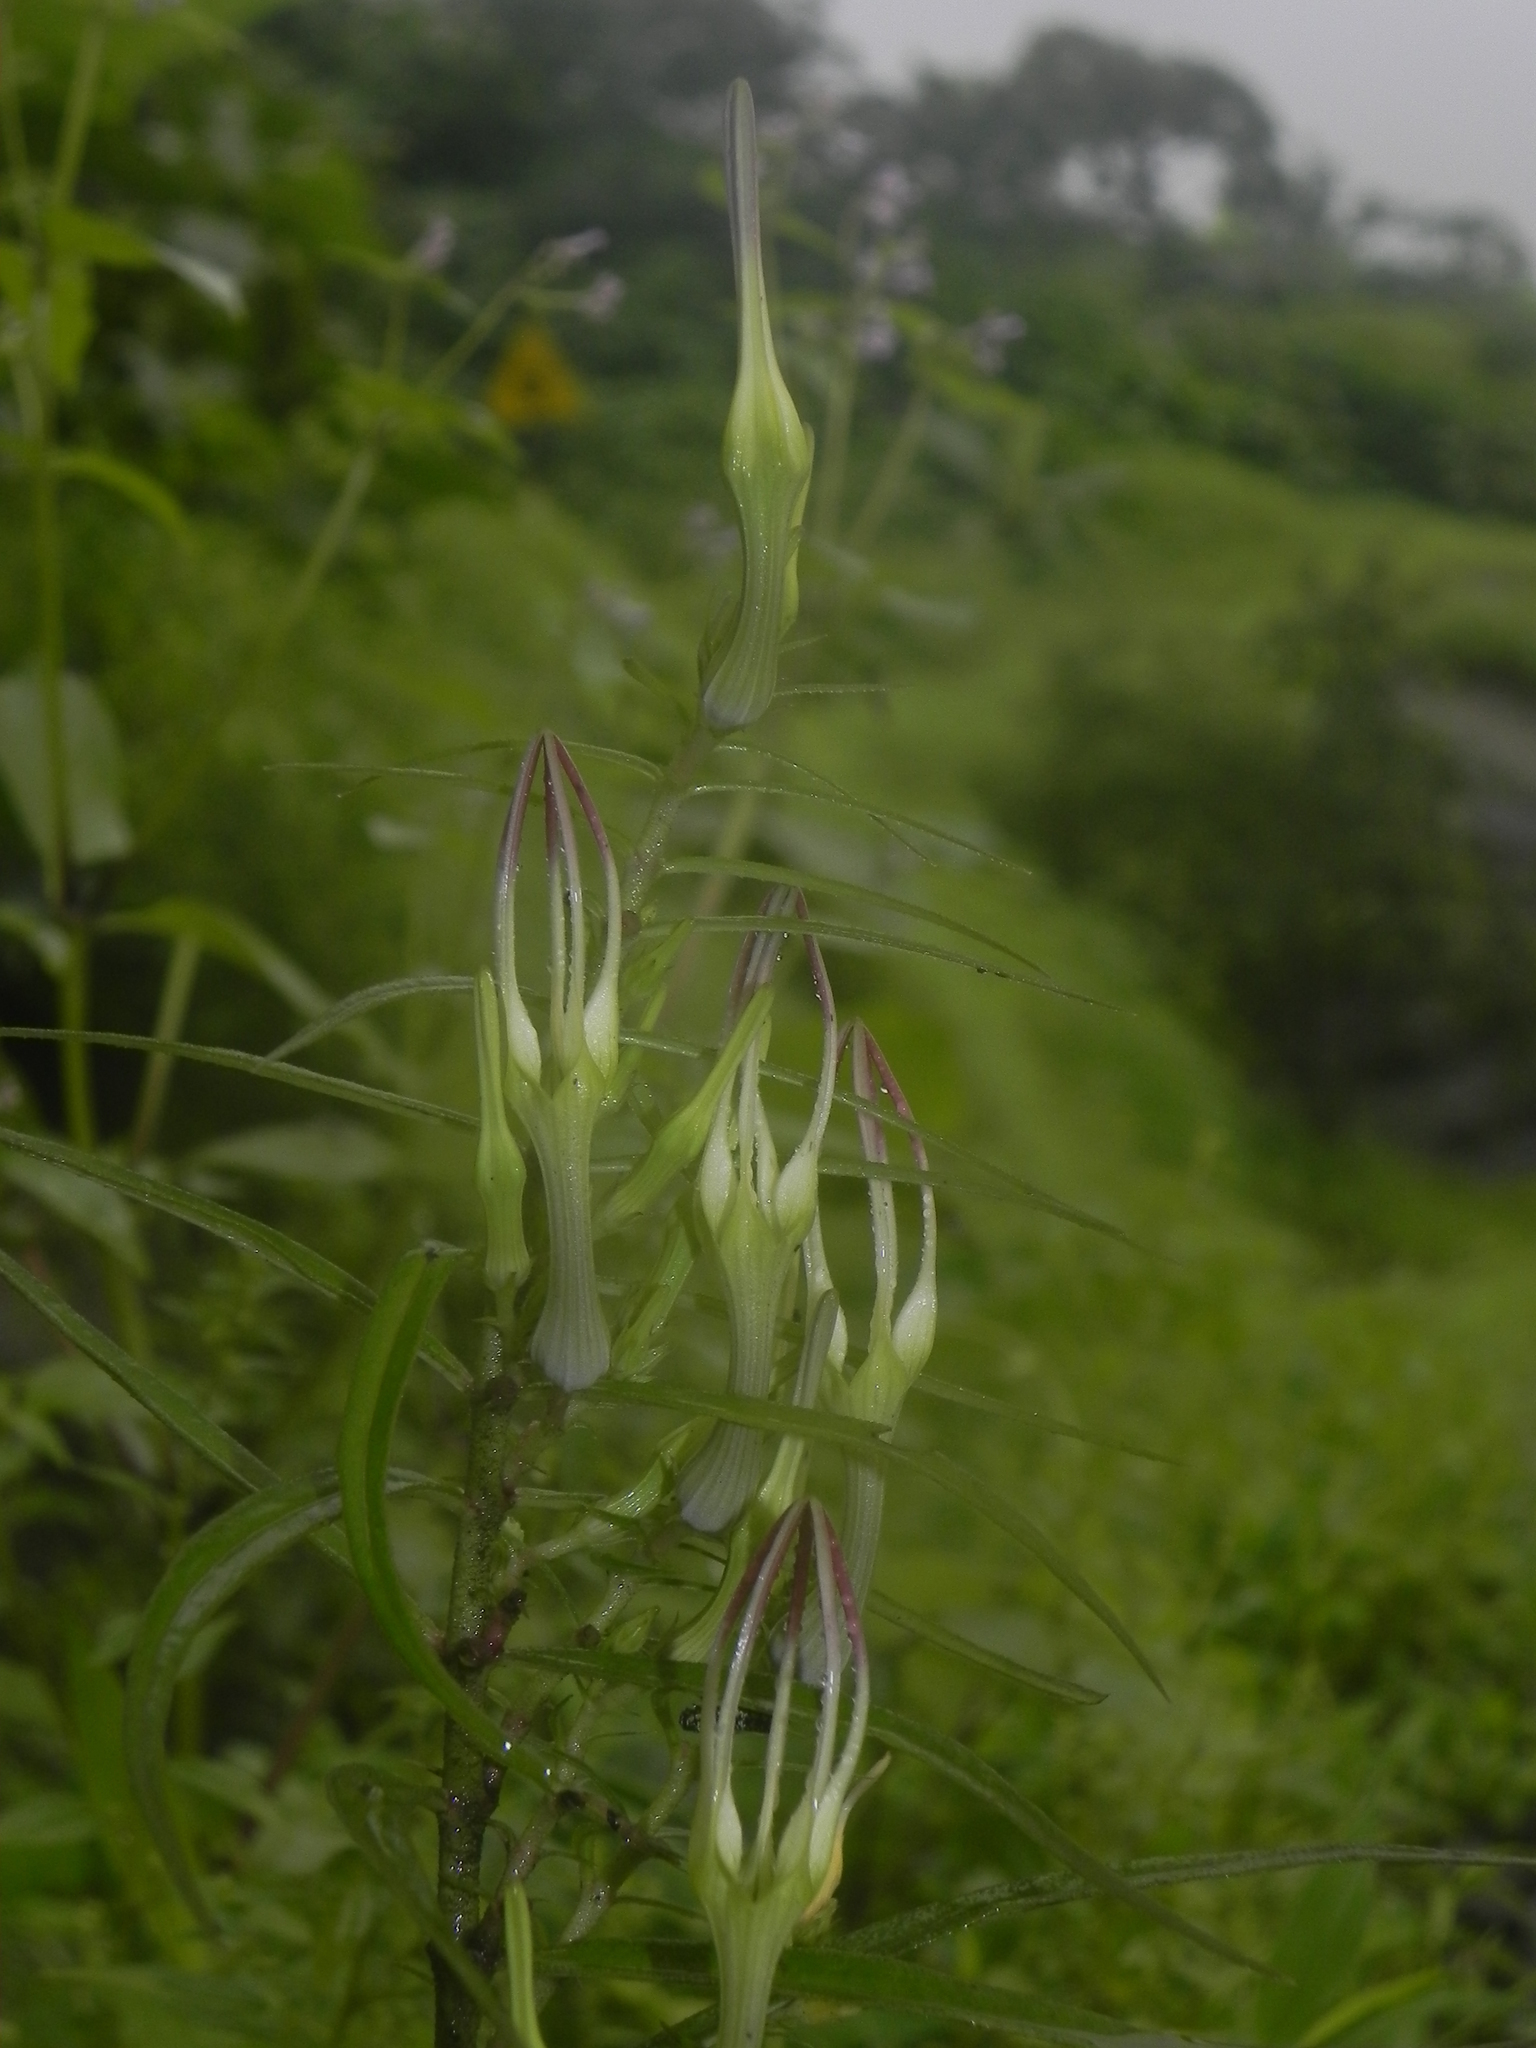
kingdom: Plantae
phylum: Tracheophyta
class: Magnoliopsida
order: Gentianales
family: Apocynaceae
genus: Ceropegia
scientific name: Ceropegia attenuata
